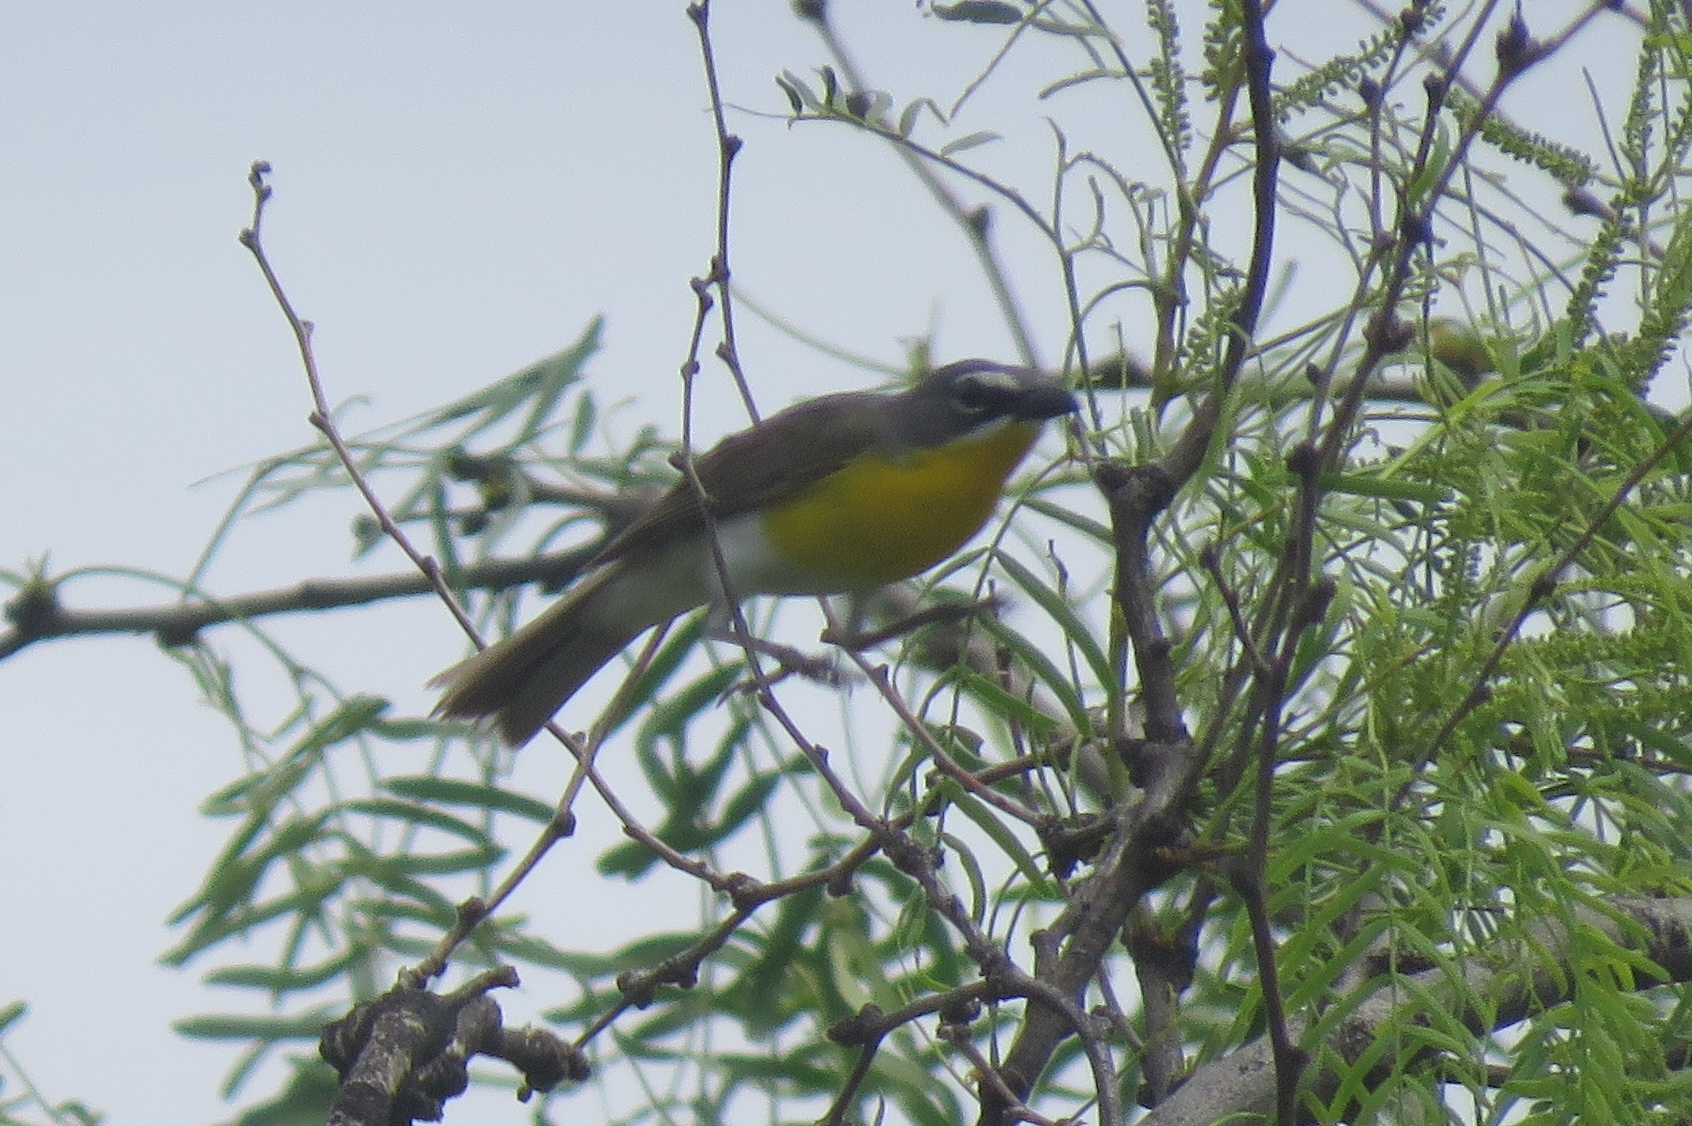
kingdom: Animalia
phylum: Chordata
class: Aves
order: Passeriformes
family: Parulidae
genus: Icteria
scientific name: Icteria virens
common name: Yellow-breasted chat
